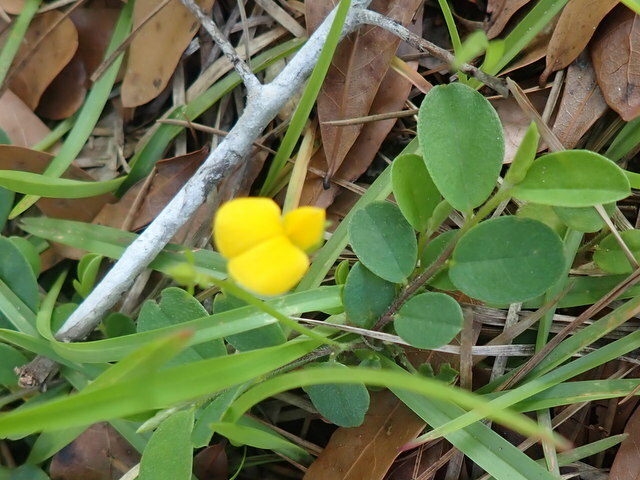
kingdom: Plantae
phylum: Tracheophyta
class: Magnoliopsida
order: Fabales
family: Fabaceae
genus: Crotalaria
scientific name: Crotalaria rotundifolia
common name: Prostrate rattlebox
